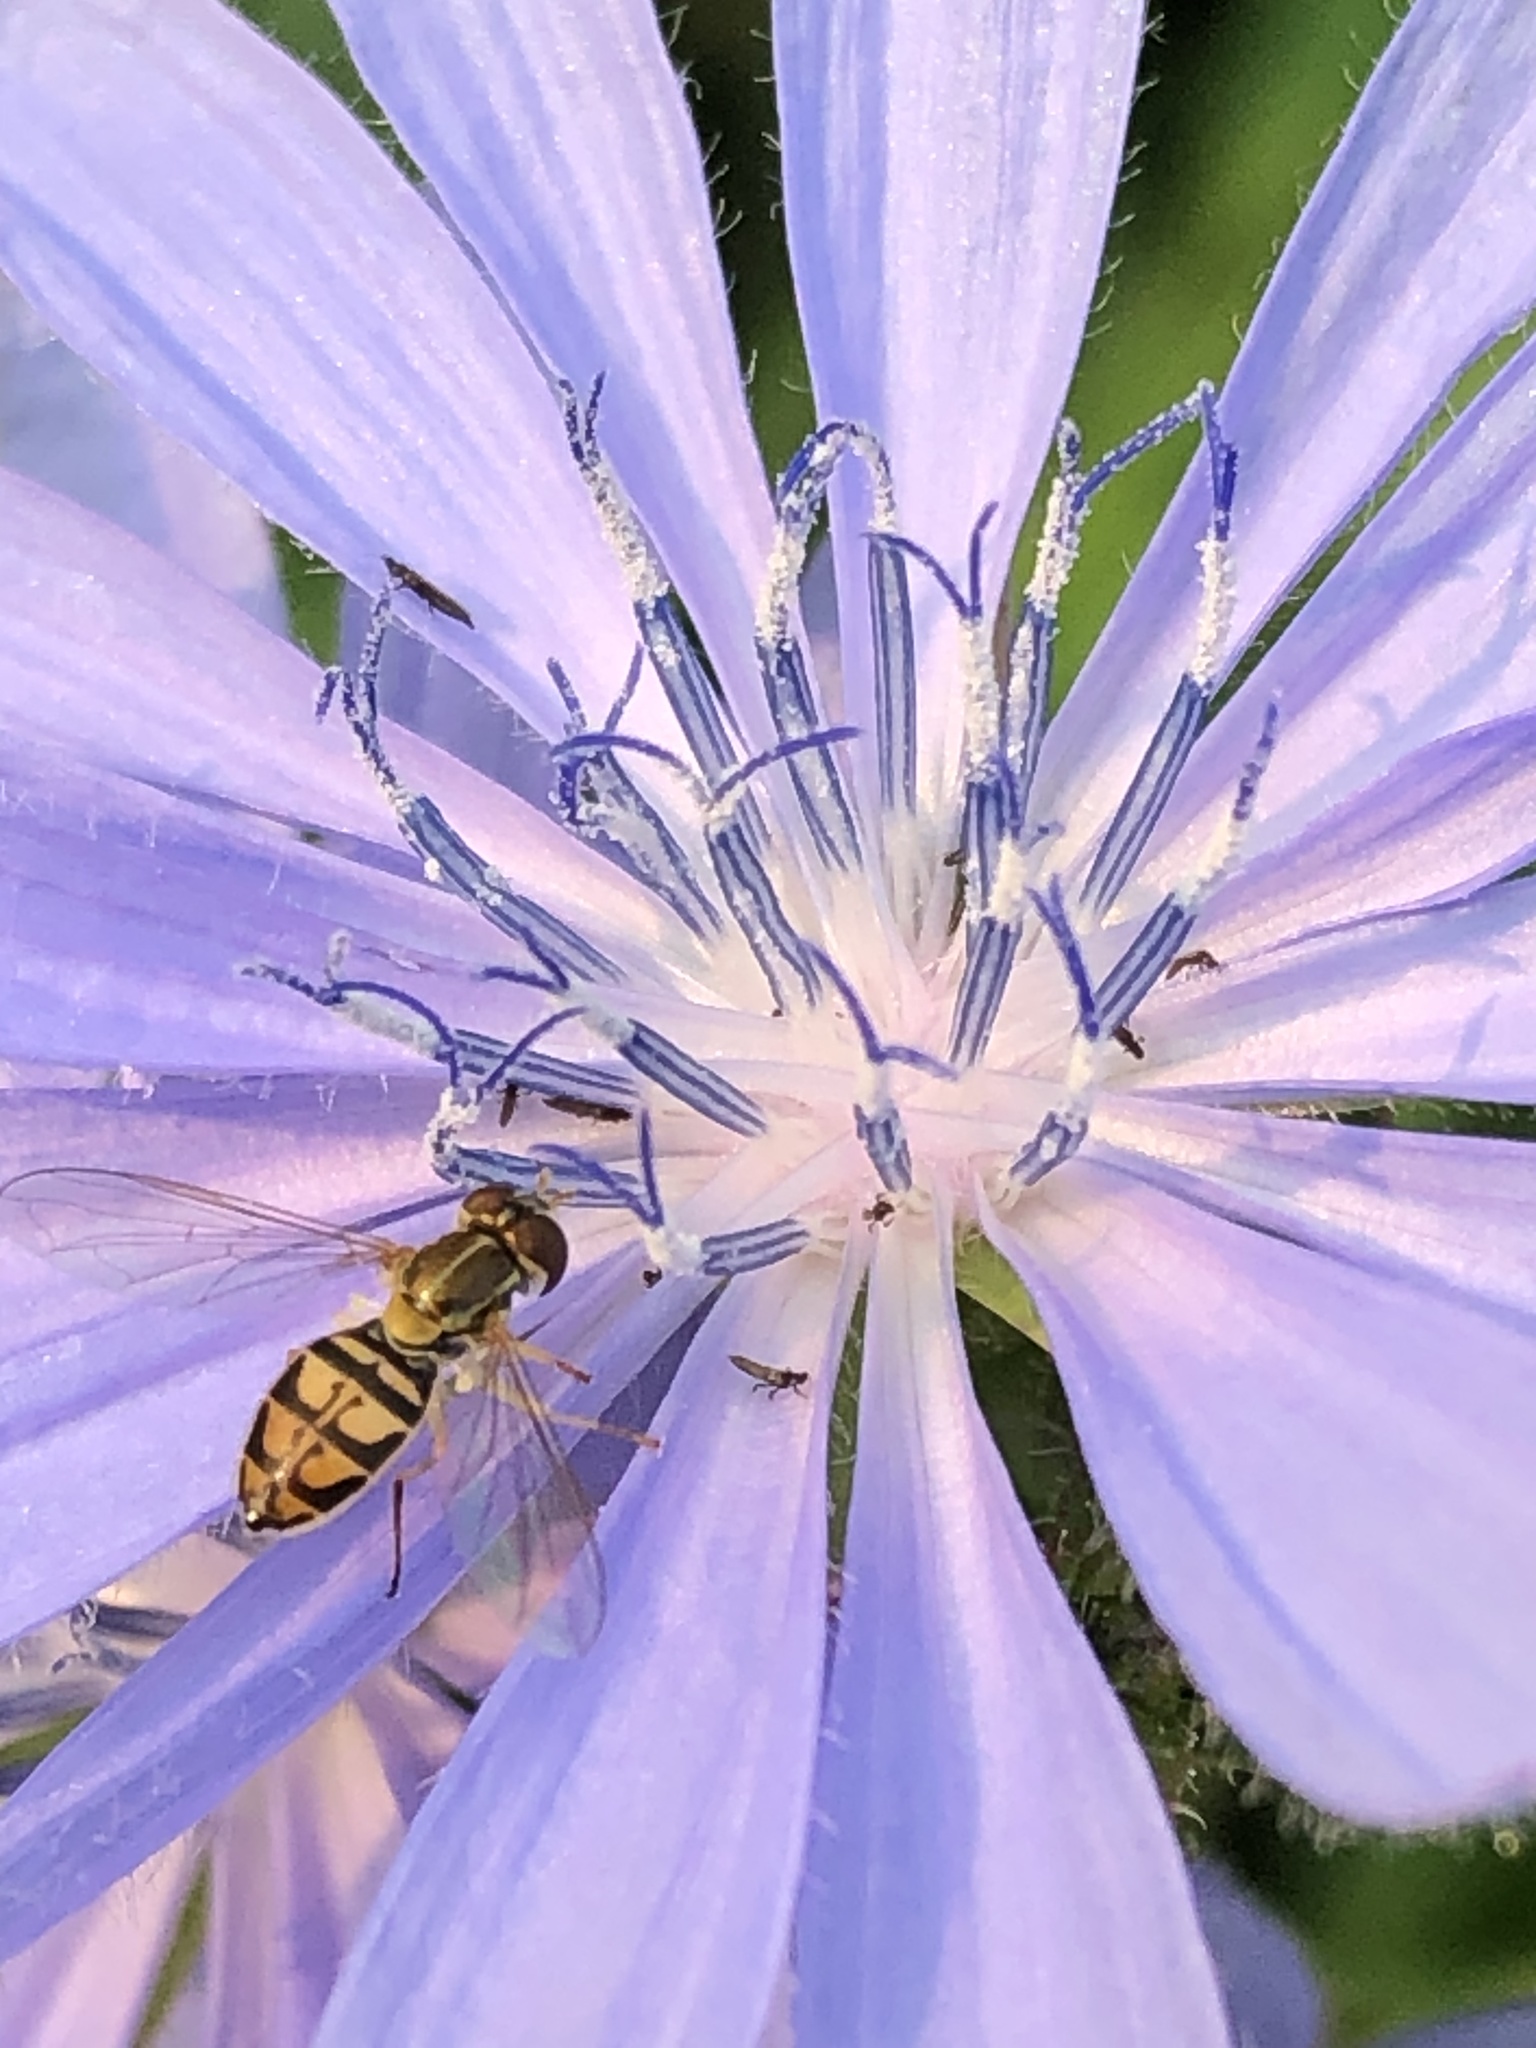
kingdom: Animalia
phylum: Arthropoda
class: Insecta
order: Diptera
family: Syrphidae
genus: Toxomerus
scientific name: Toxomerus marginatus
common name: Syrphid fly
